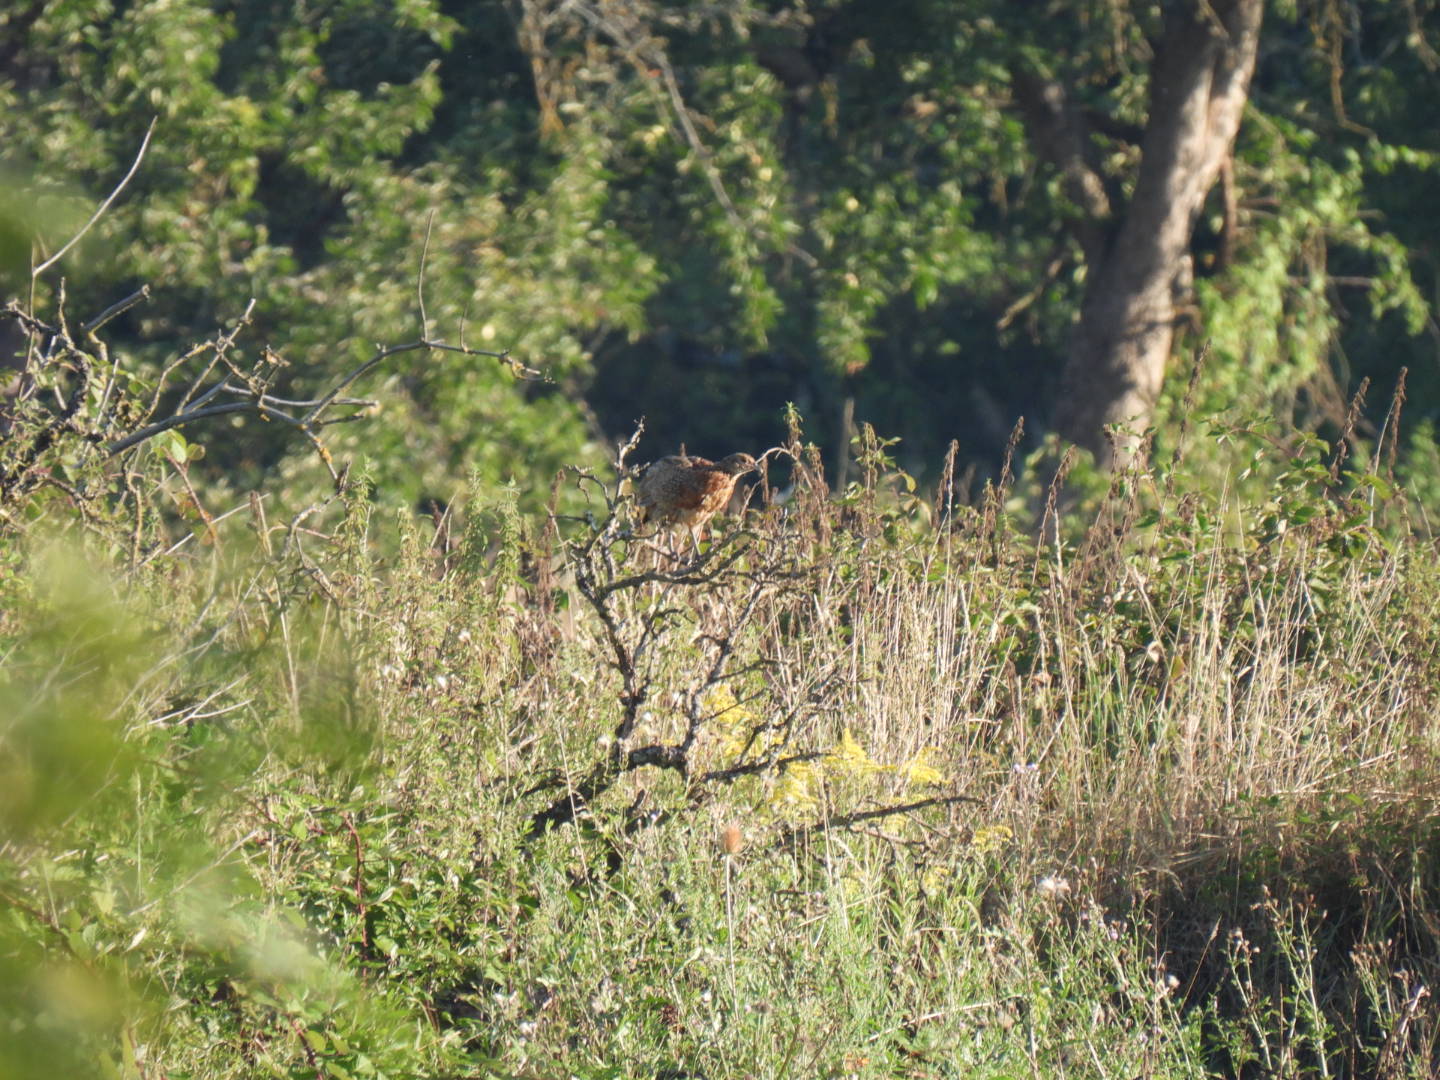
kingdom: Animalia
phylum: Chordata
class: Aves
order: Galliformes
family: Phasianidae
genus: Phasianus
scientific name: Phasianus colchicus
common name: Common pheasant
